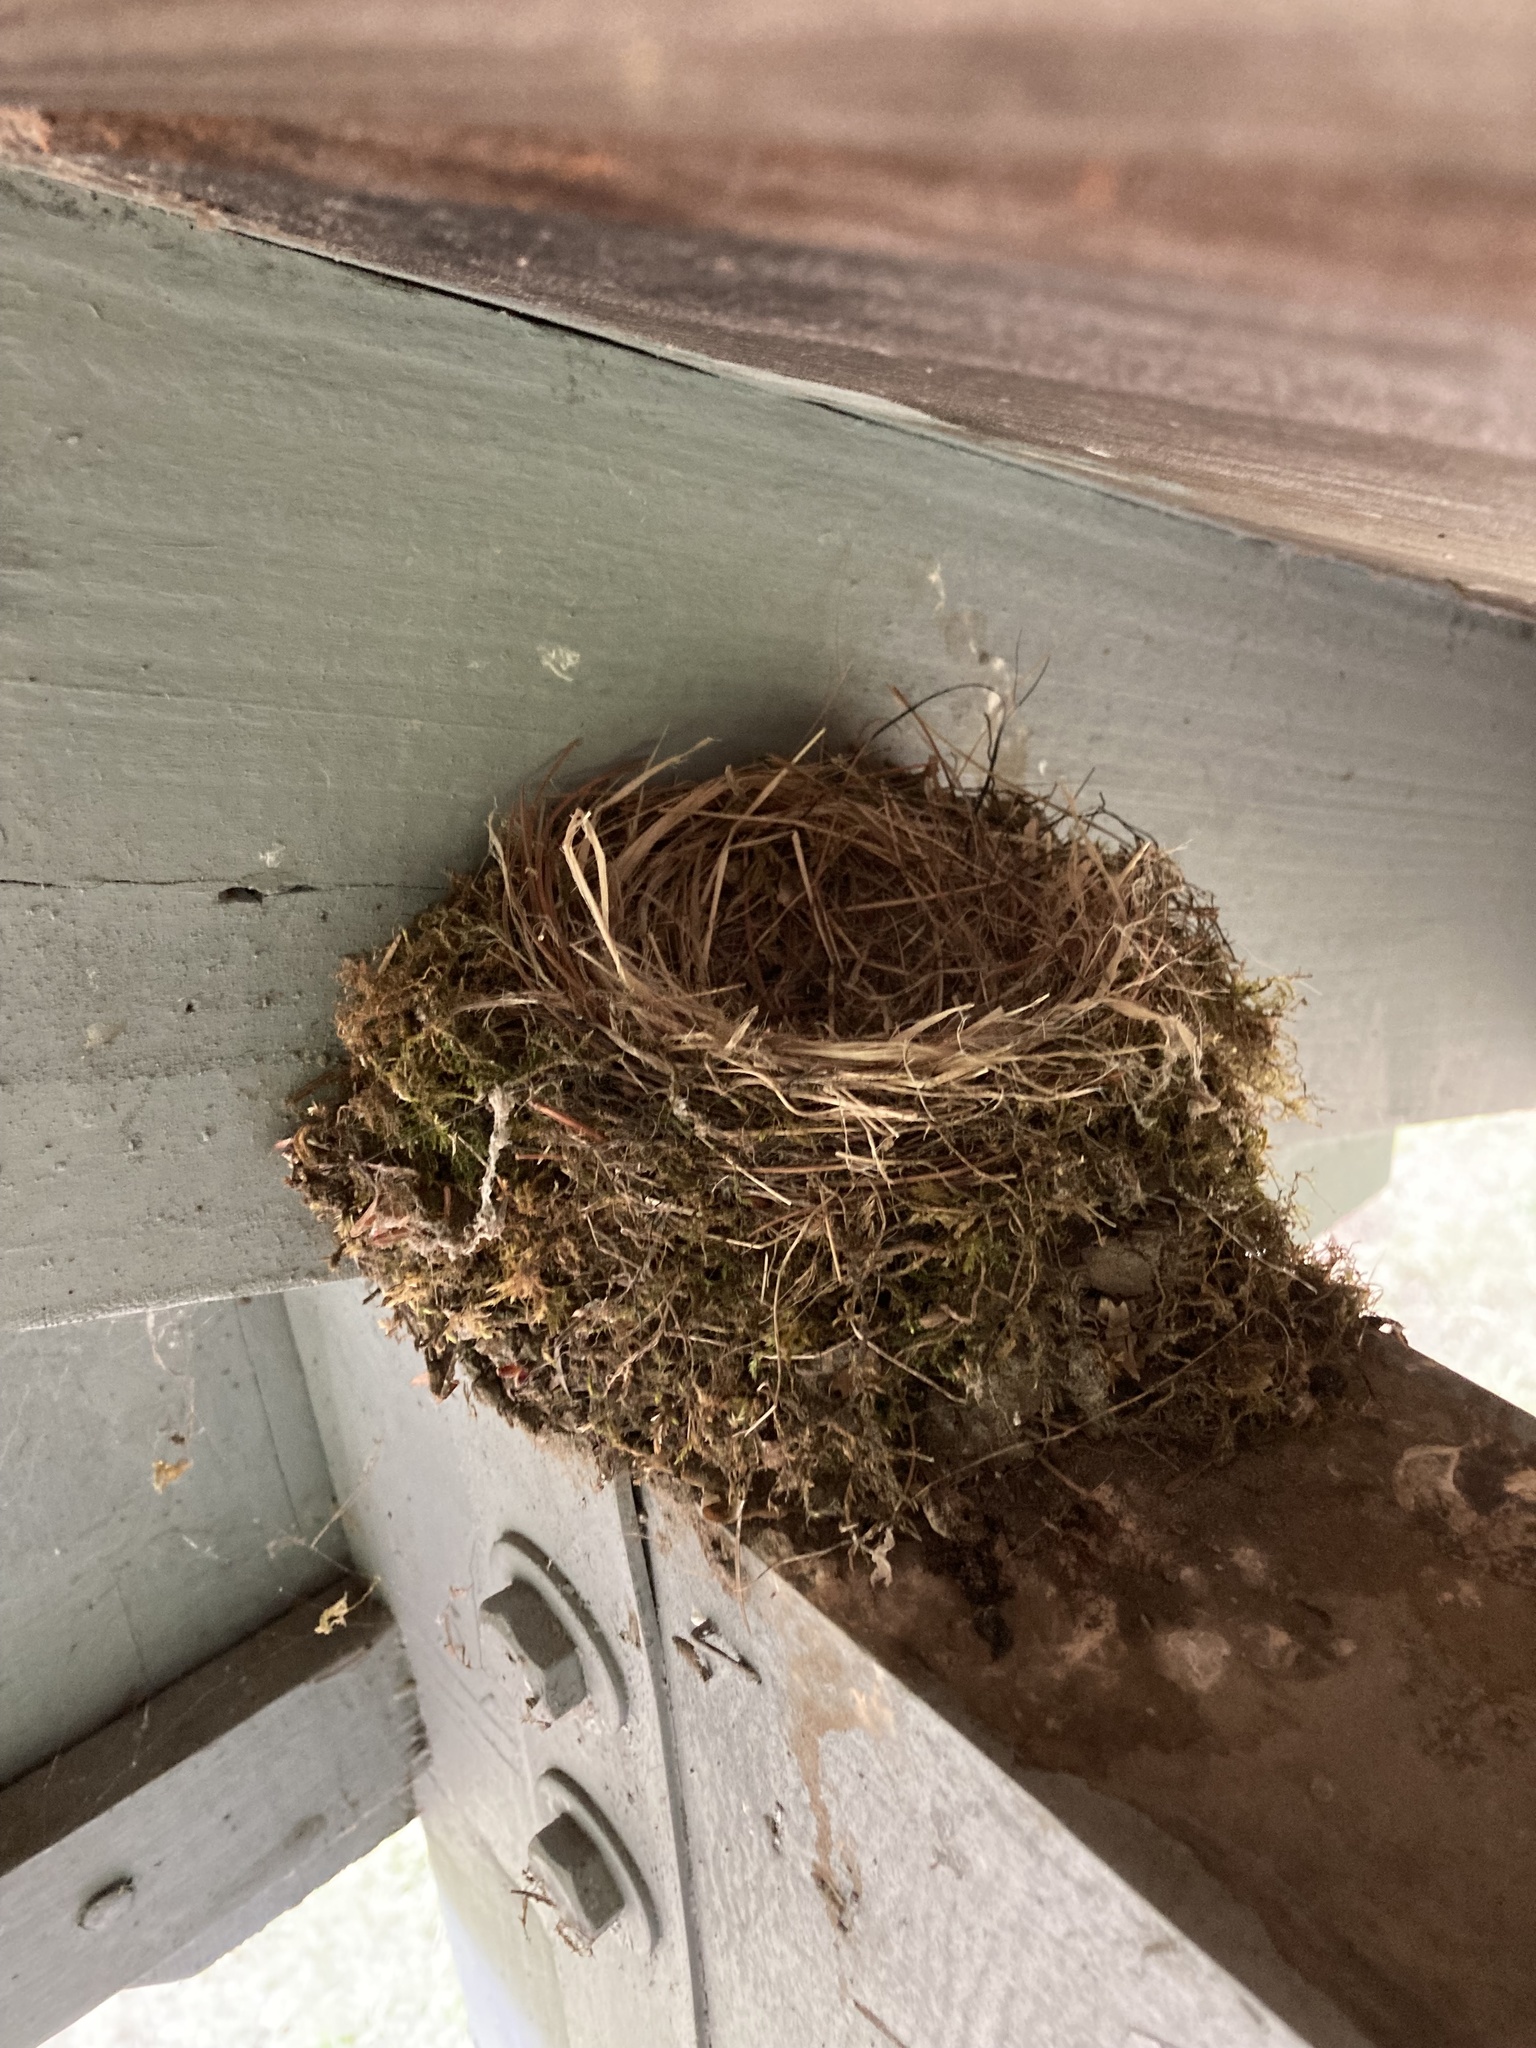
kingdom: Animalia
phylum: Chordata
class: Aves
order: Passeriformes
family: Tyrannidae
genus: Sayornis
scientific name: Sayornis phoebe
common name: Eastern phoebe
